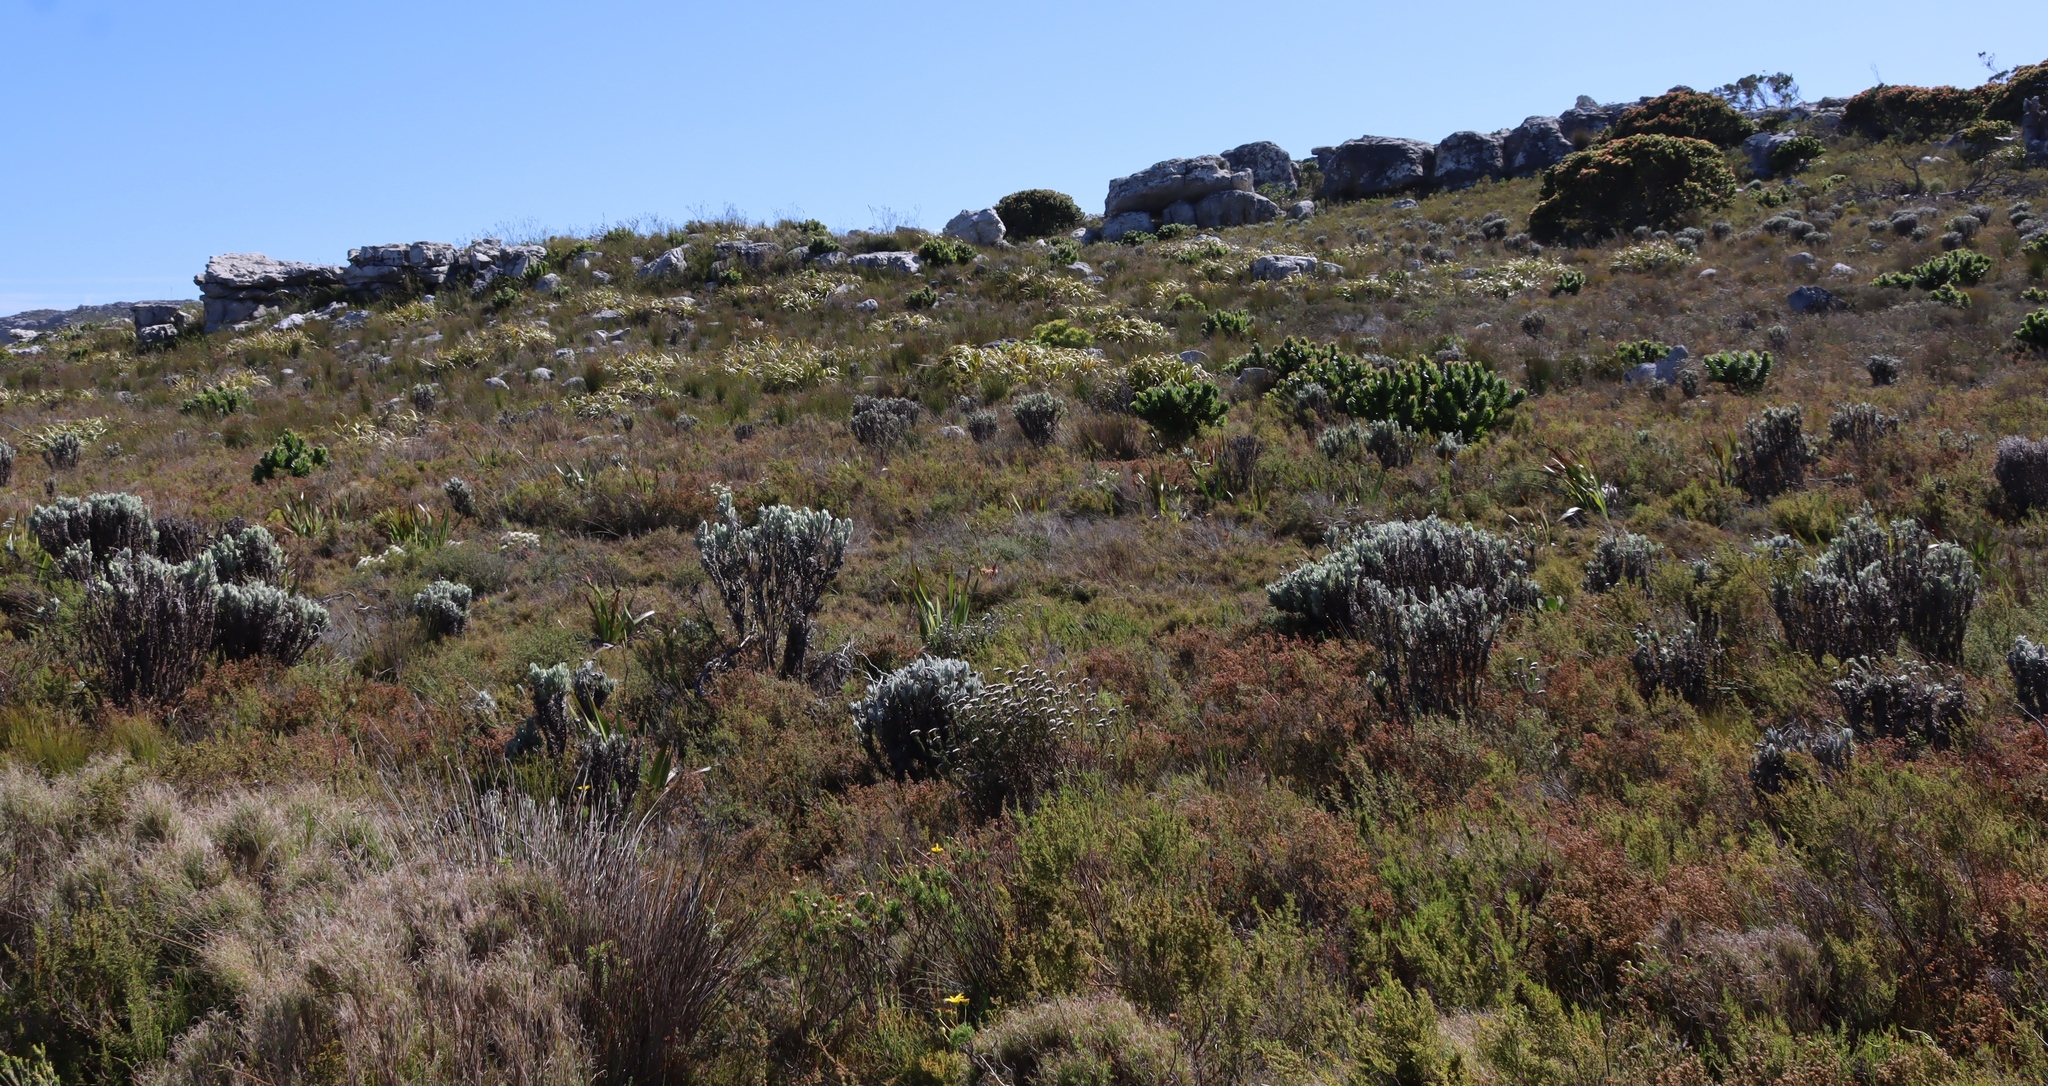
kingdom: Plantae
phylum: Tracheophyta
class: Liliopsida
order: Poales
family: Cyperaceae
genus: Tetraria
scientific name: Tetraria thermalis
